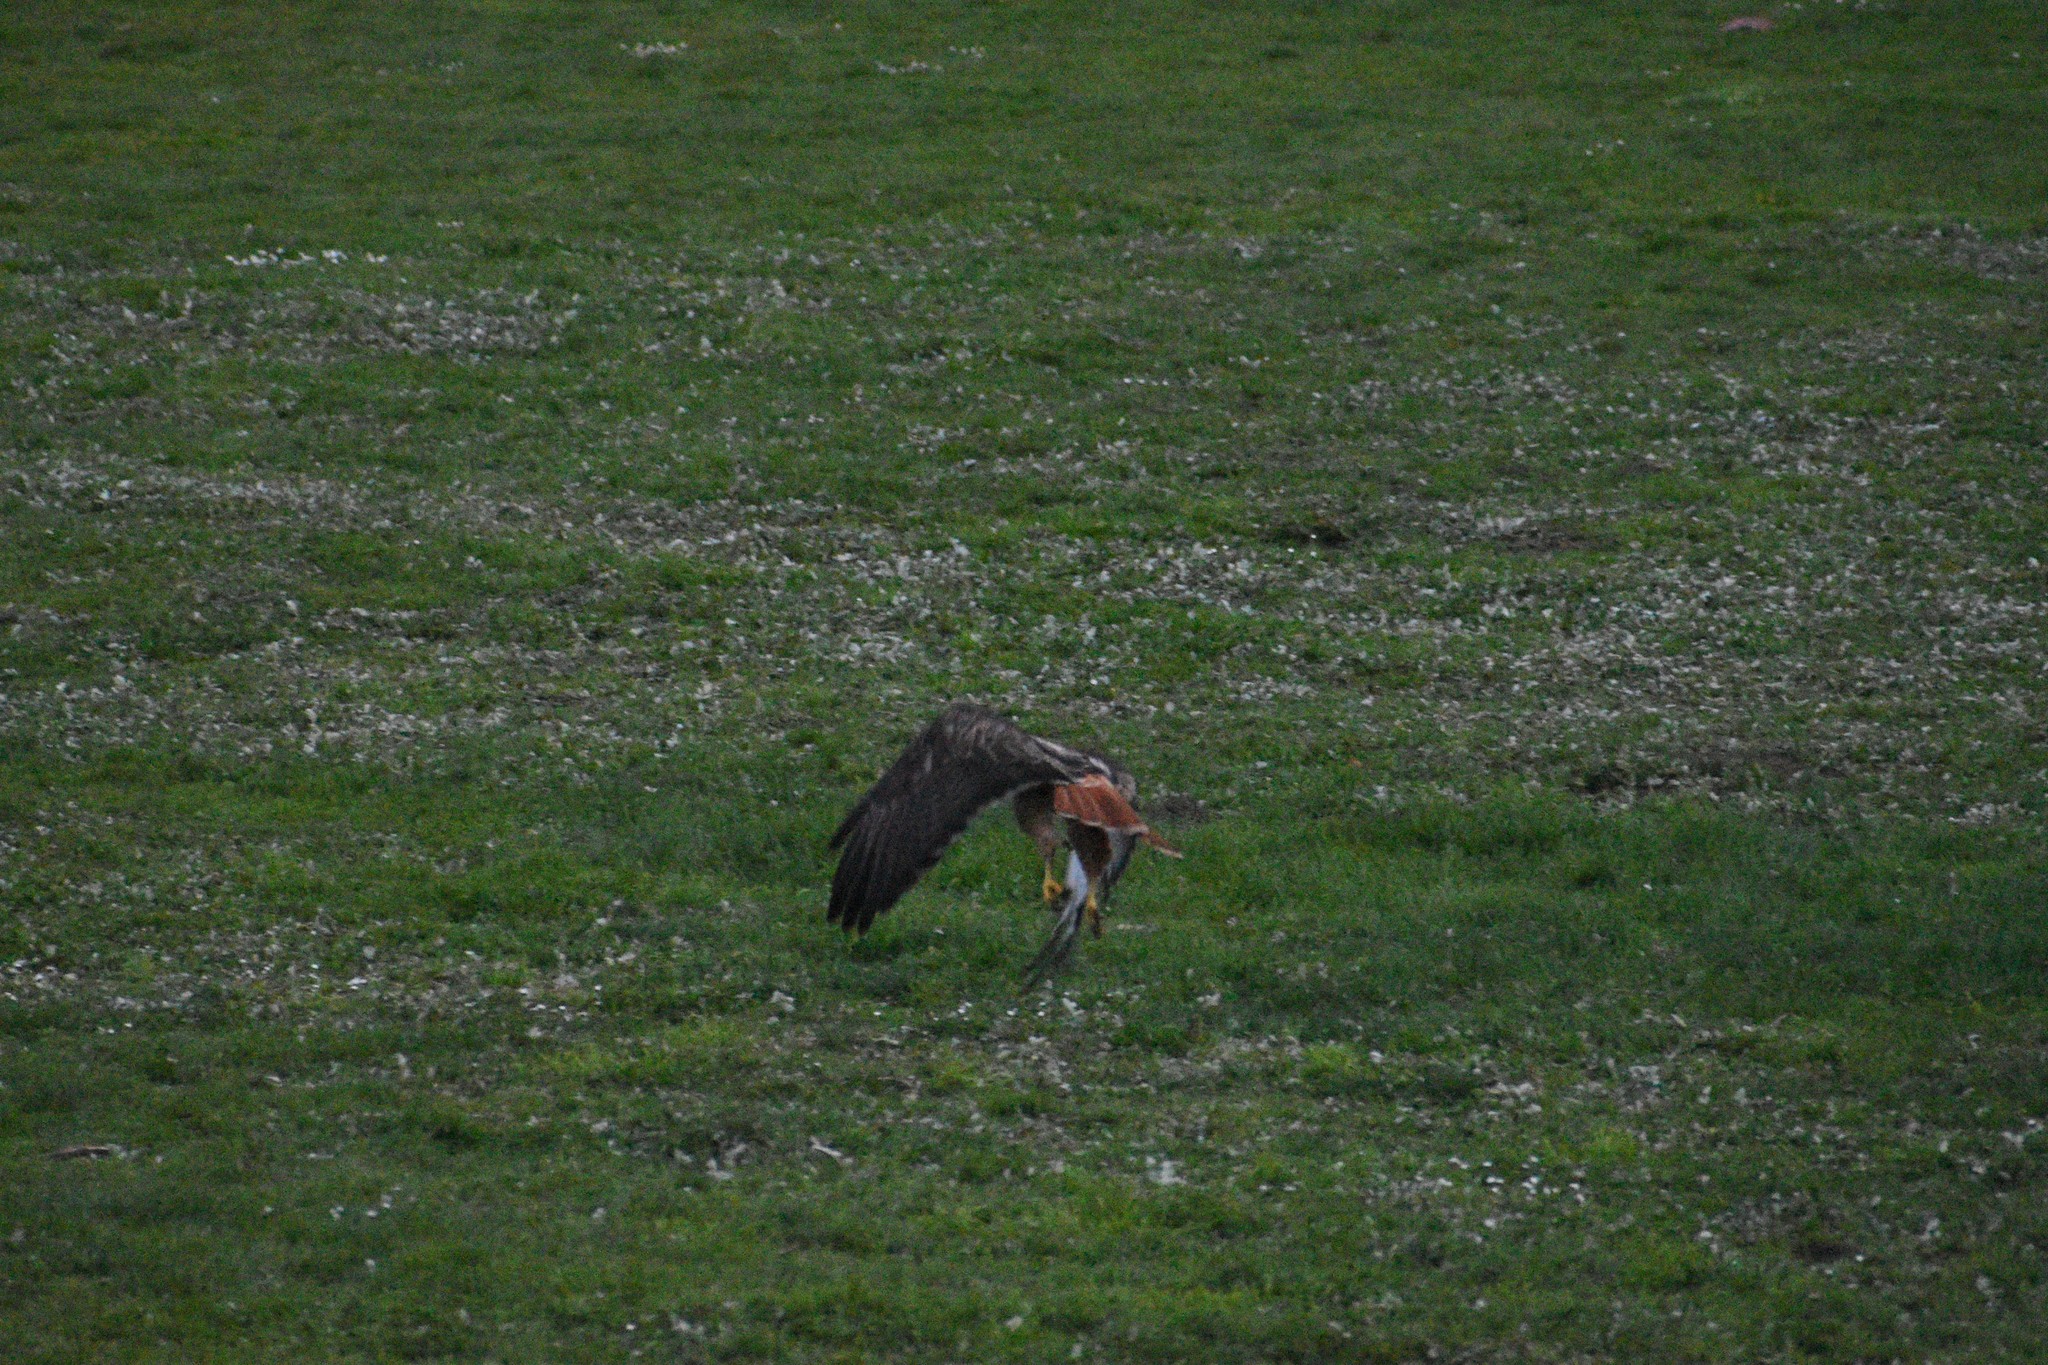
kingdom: Animalia
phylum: Chordata
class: Aves
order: Accipitriformes
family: Accipitridae
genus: Buteo
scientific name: Buteo jamaicensis
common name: Red-tailed hawk
